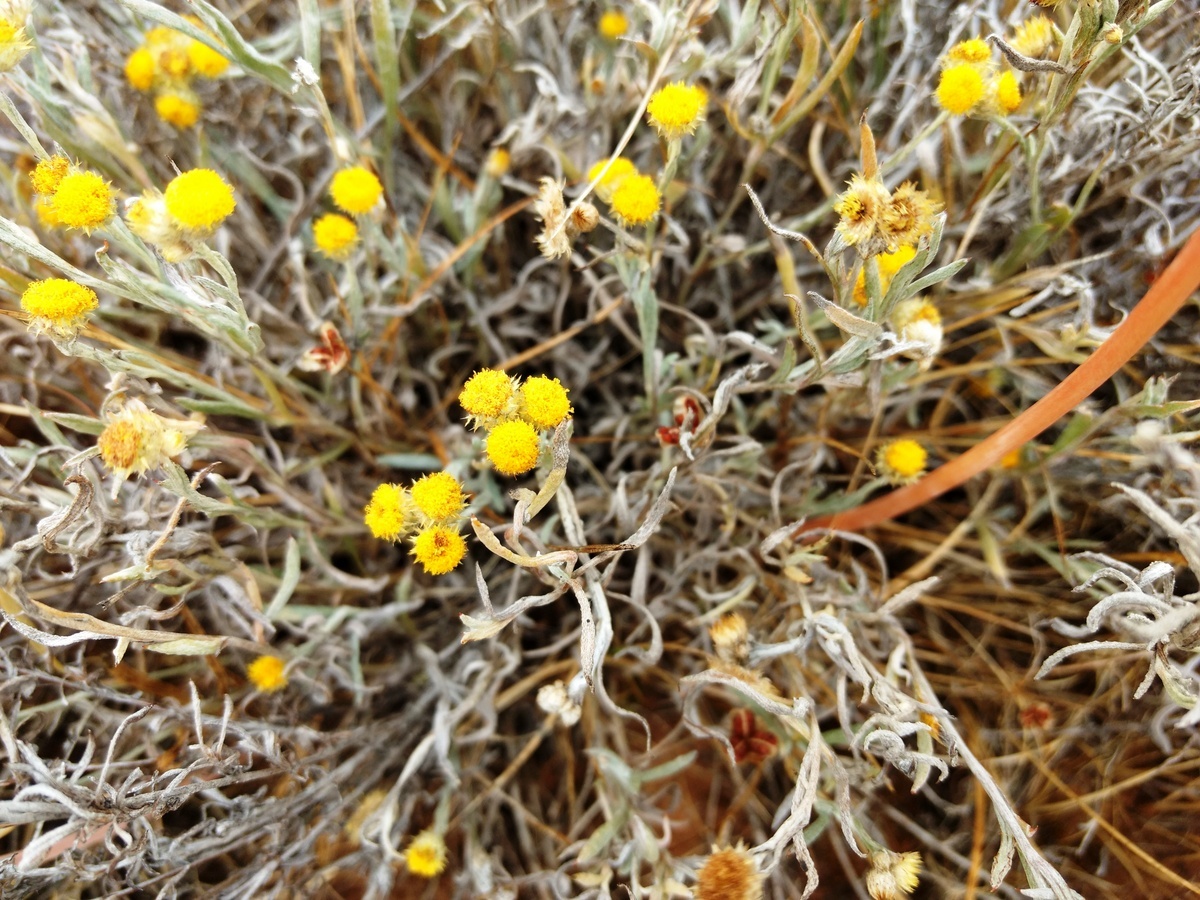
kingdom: Plantae
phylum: Tracheophyta
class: Magnoliopsida
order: Asterales
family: Asteraceae
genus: Chrysocephalum
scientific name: Chrysocephalum apiculatum
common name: Common everlasting
